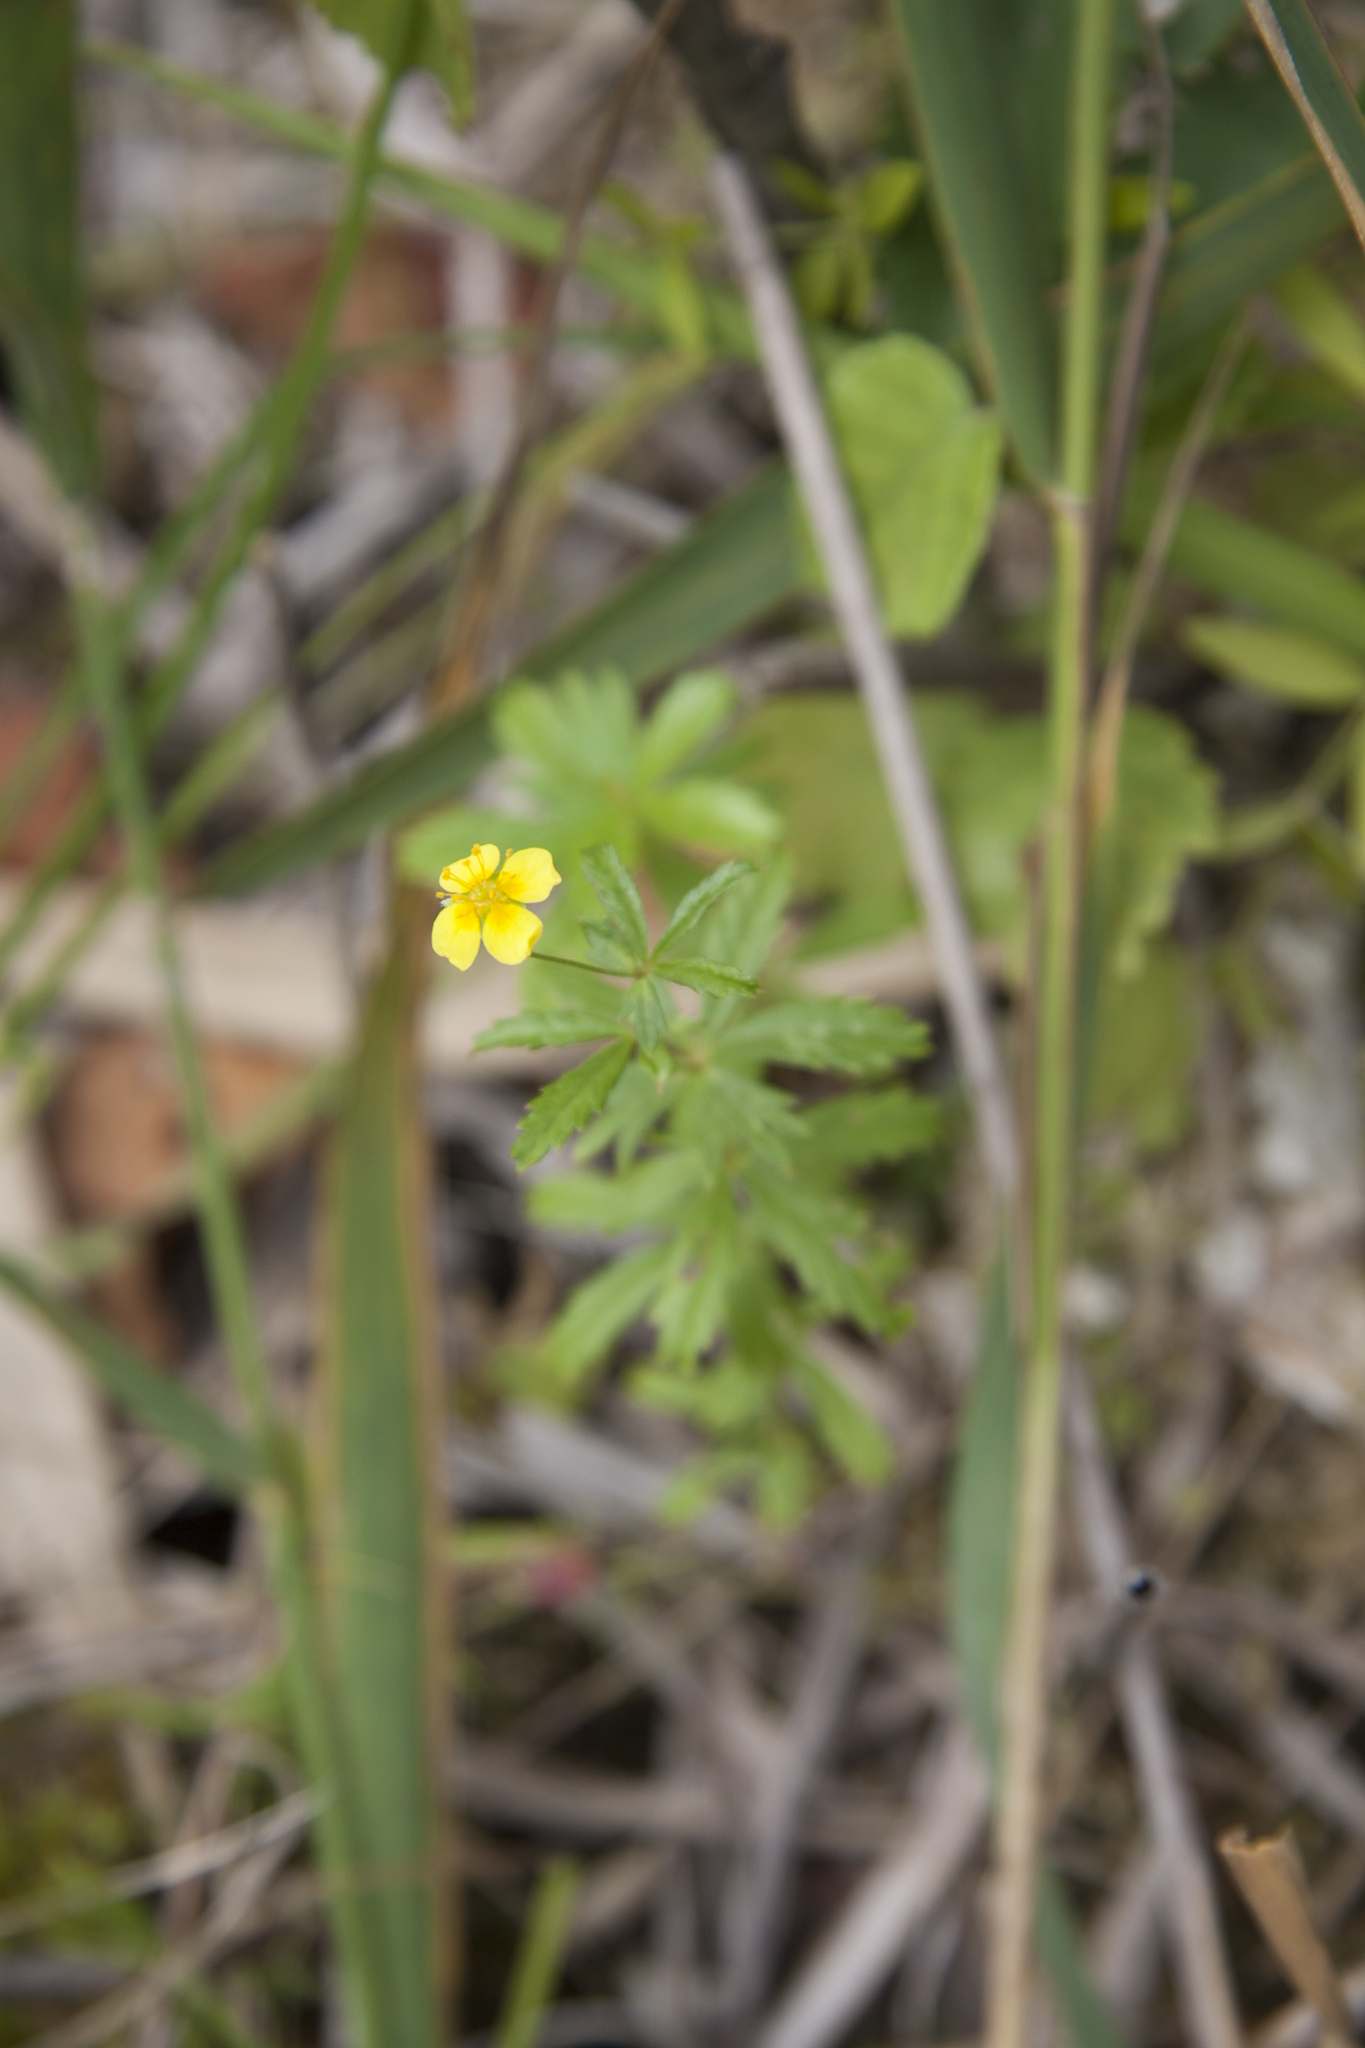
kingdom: Plantae
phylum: Tracheophyta
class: Magnoliopsida
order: Rosales
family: Rosaceae
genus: Potentilla
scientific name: Potentilla erecta
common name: Tormentil
